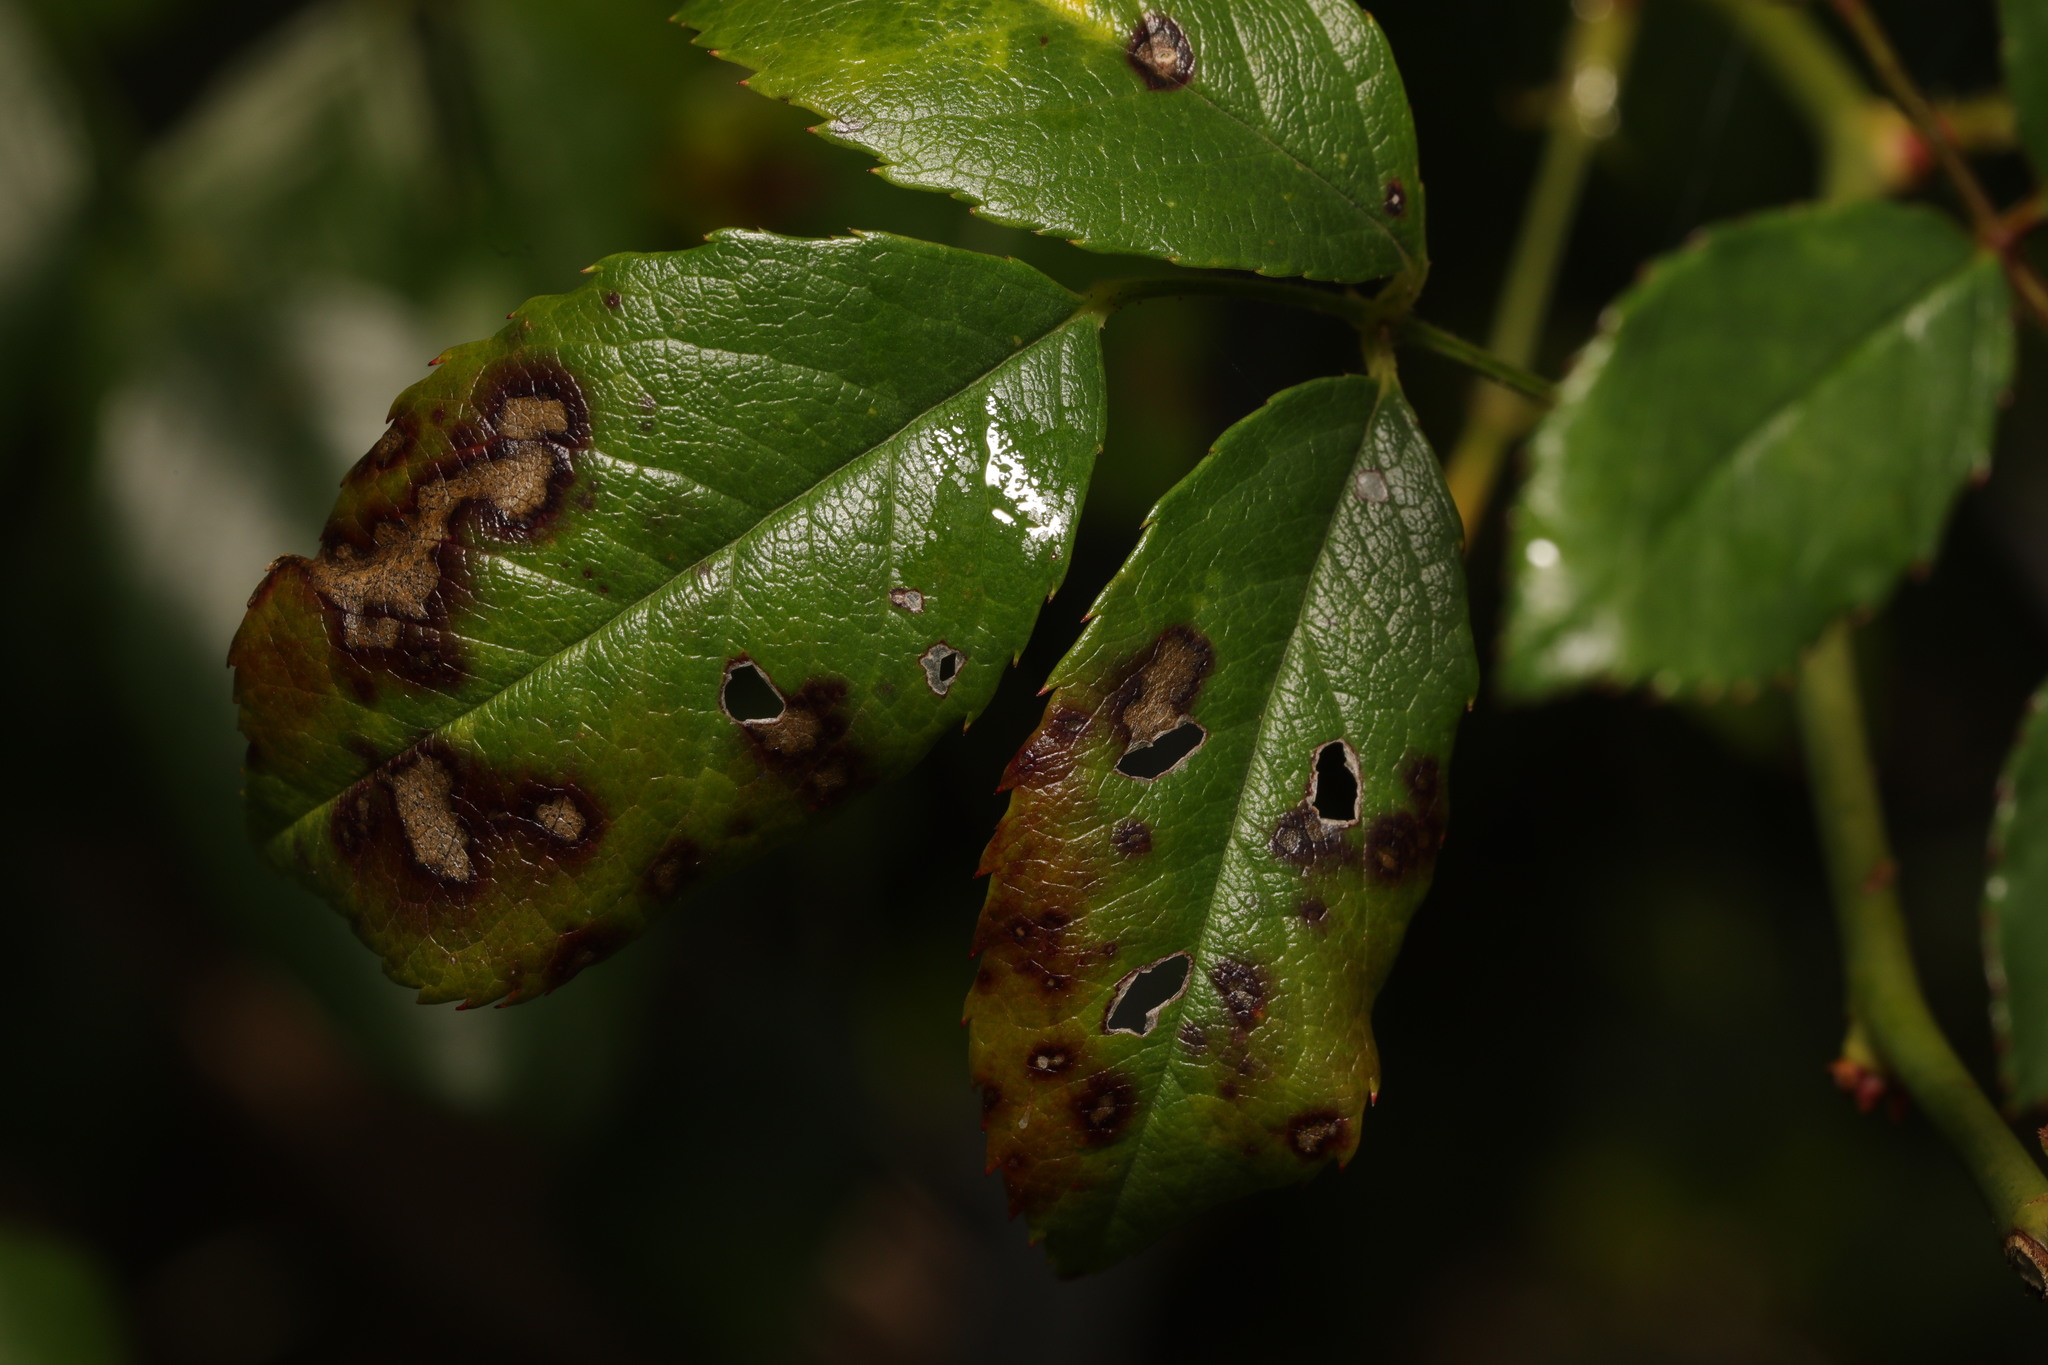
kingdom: Fungi
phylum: Ascomycota
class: Leotiomycetes
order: Helotiales
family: Drepanopezizaceae
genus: Diplocarpon
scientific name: Diplocarpon rosae
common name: Rose black-spot
